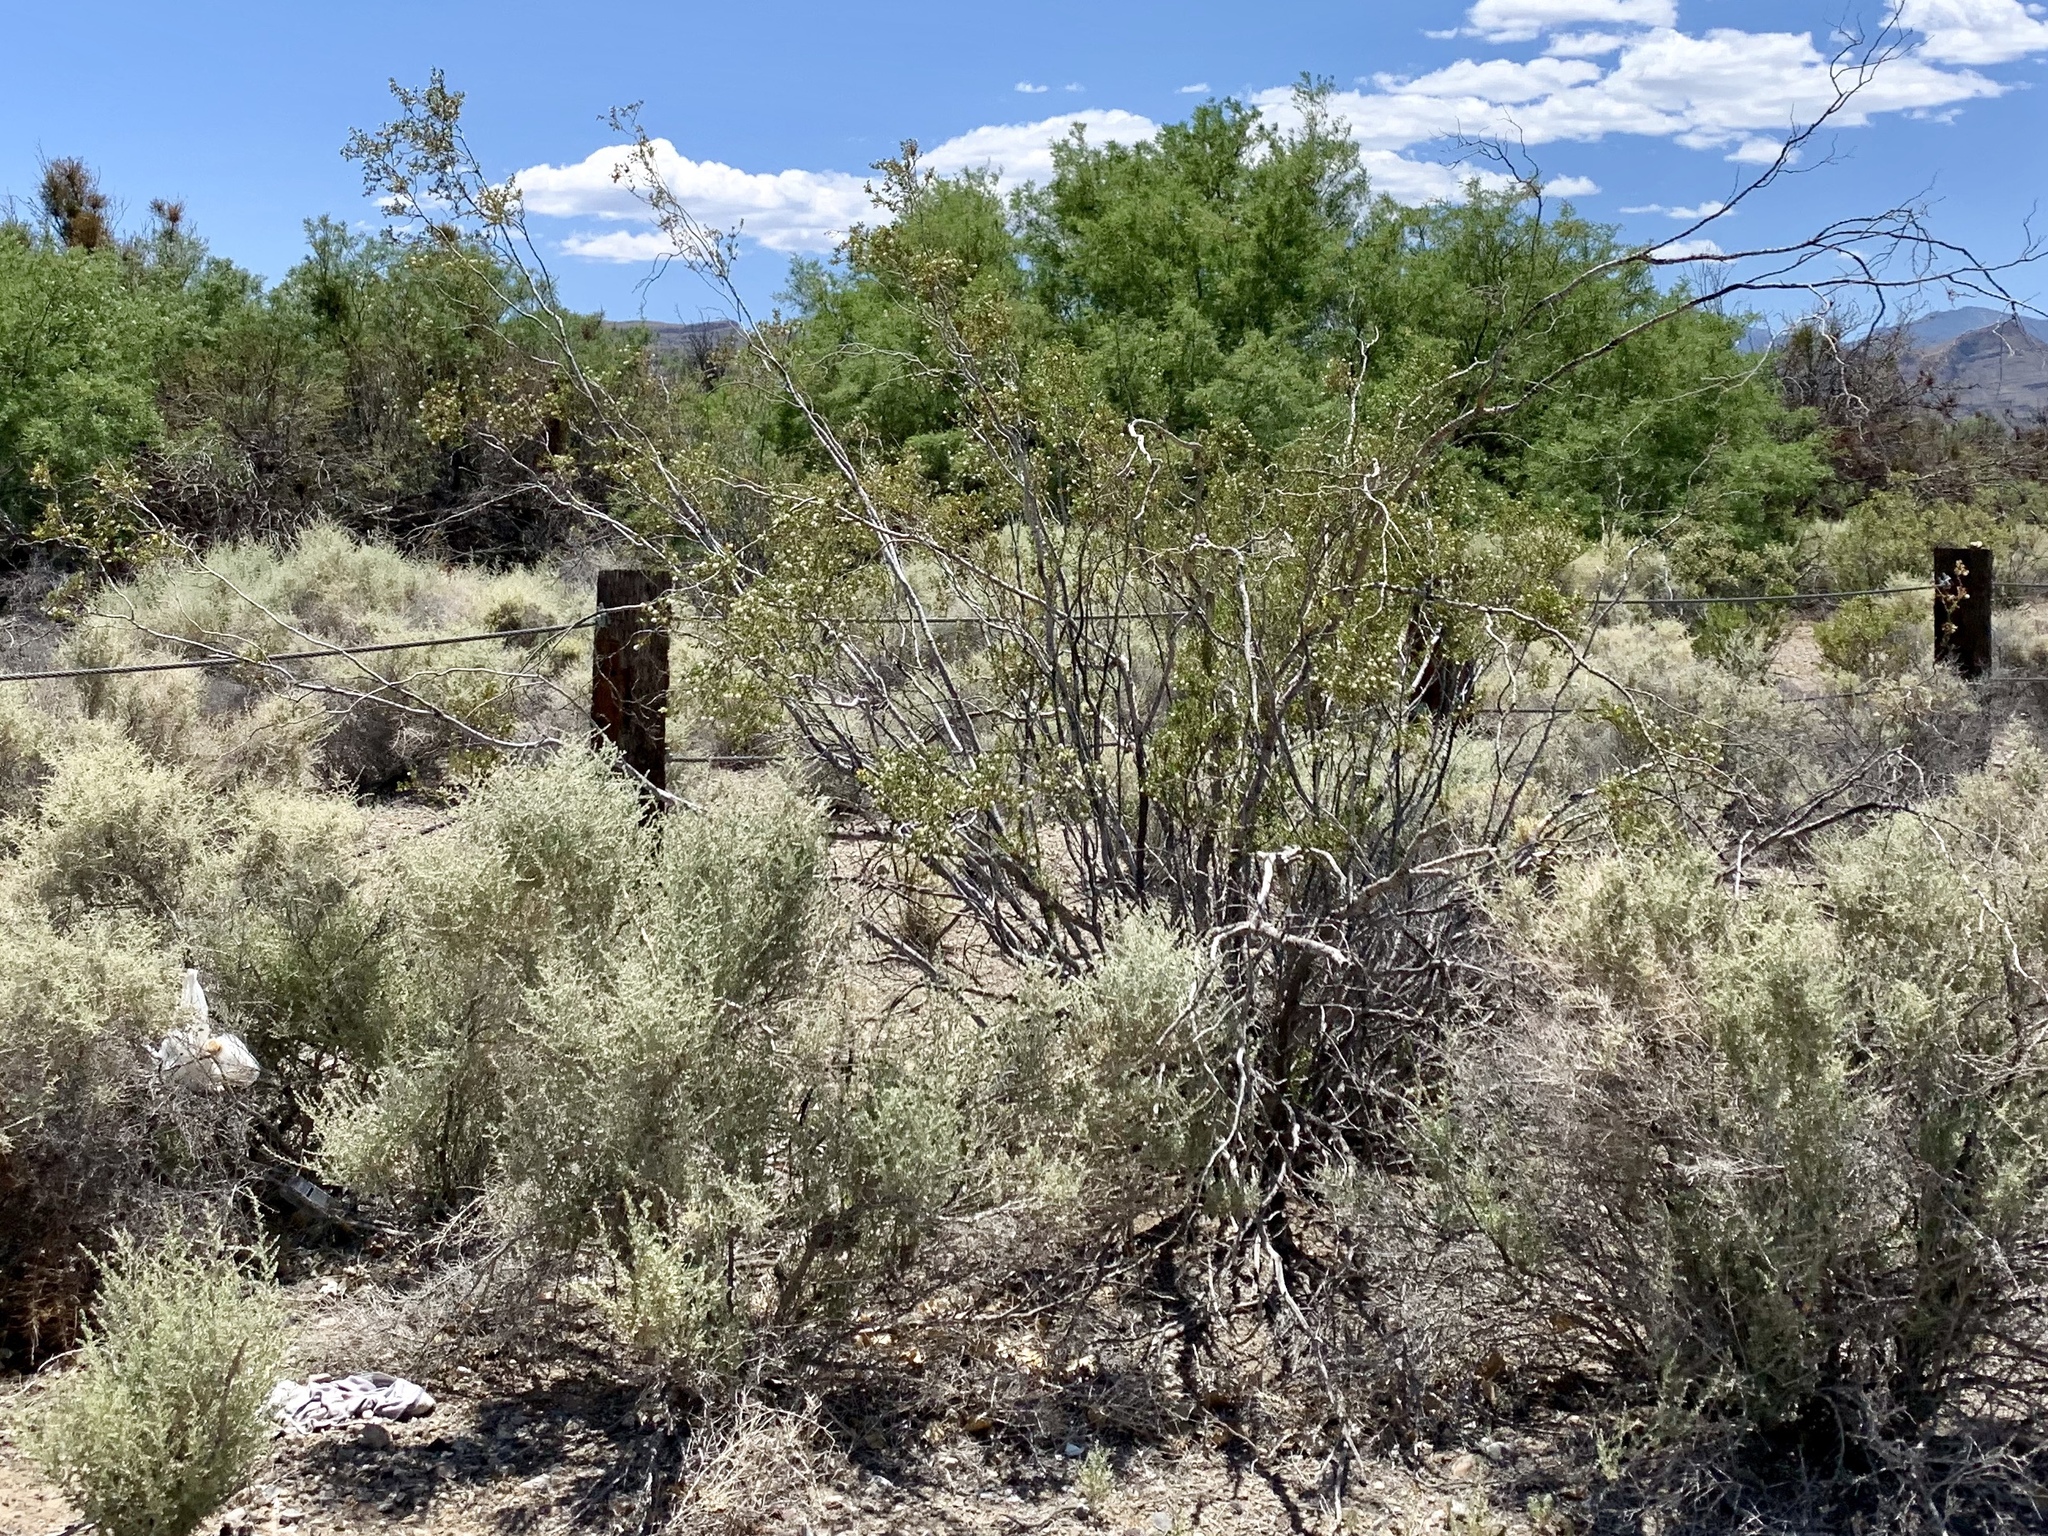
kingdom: Plantae
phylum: Tracheophyta
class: Magnoliopsida
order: Zygophyllales
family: Zygophyllaceae
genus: Larrea
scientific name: Larrea tridentata
